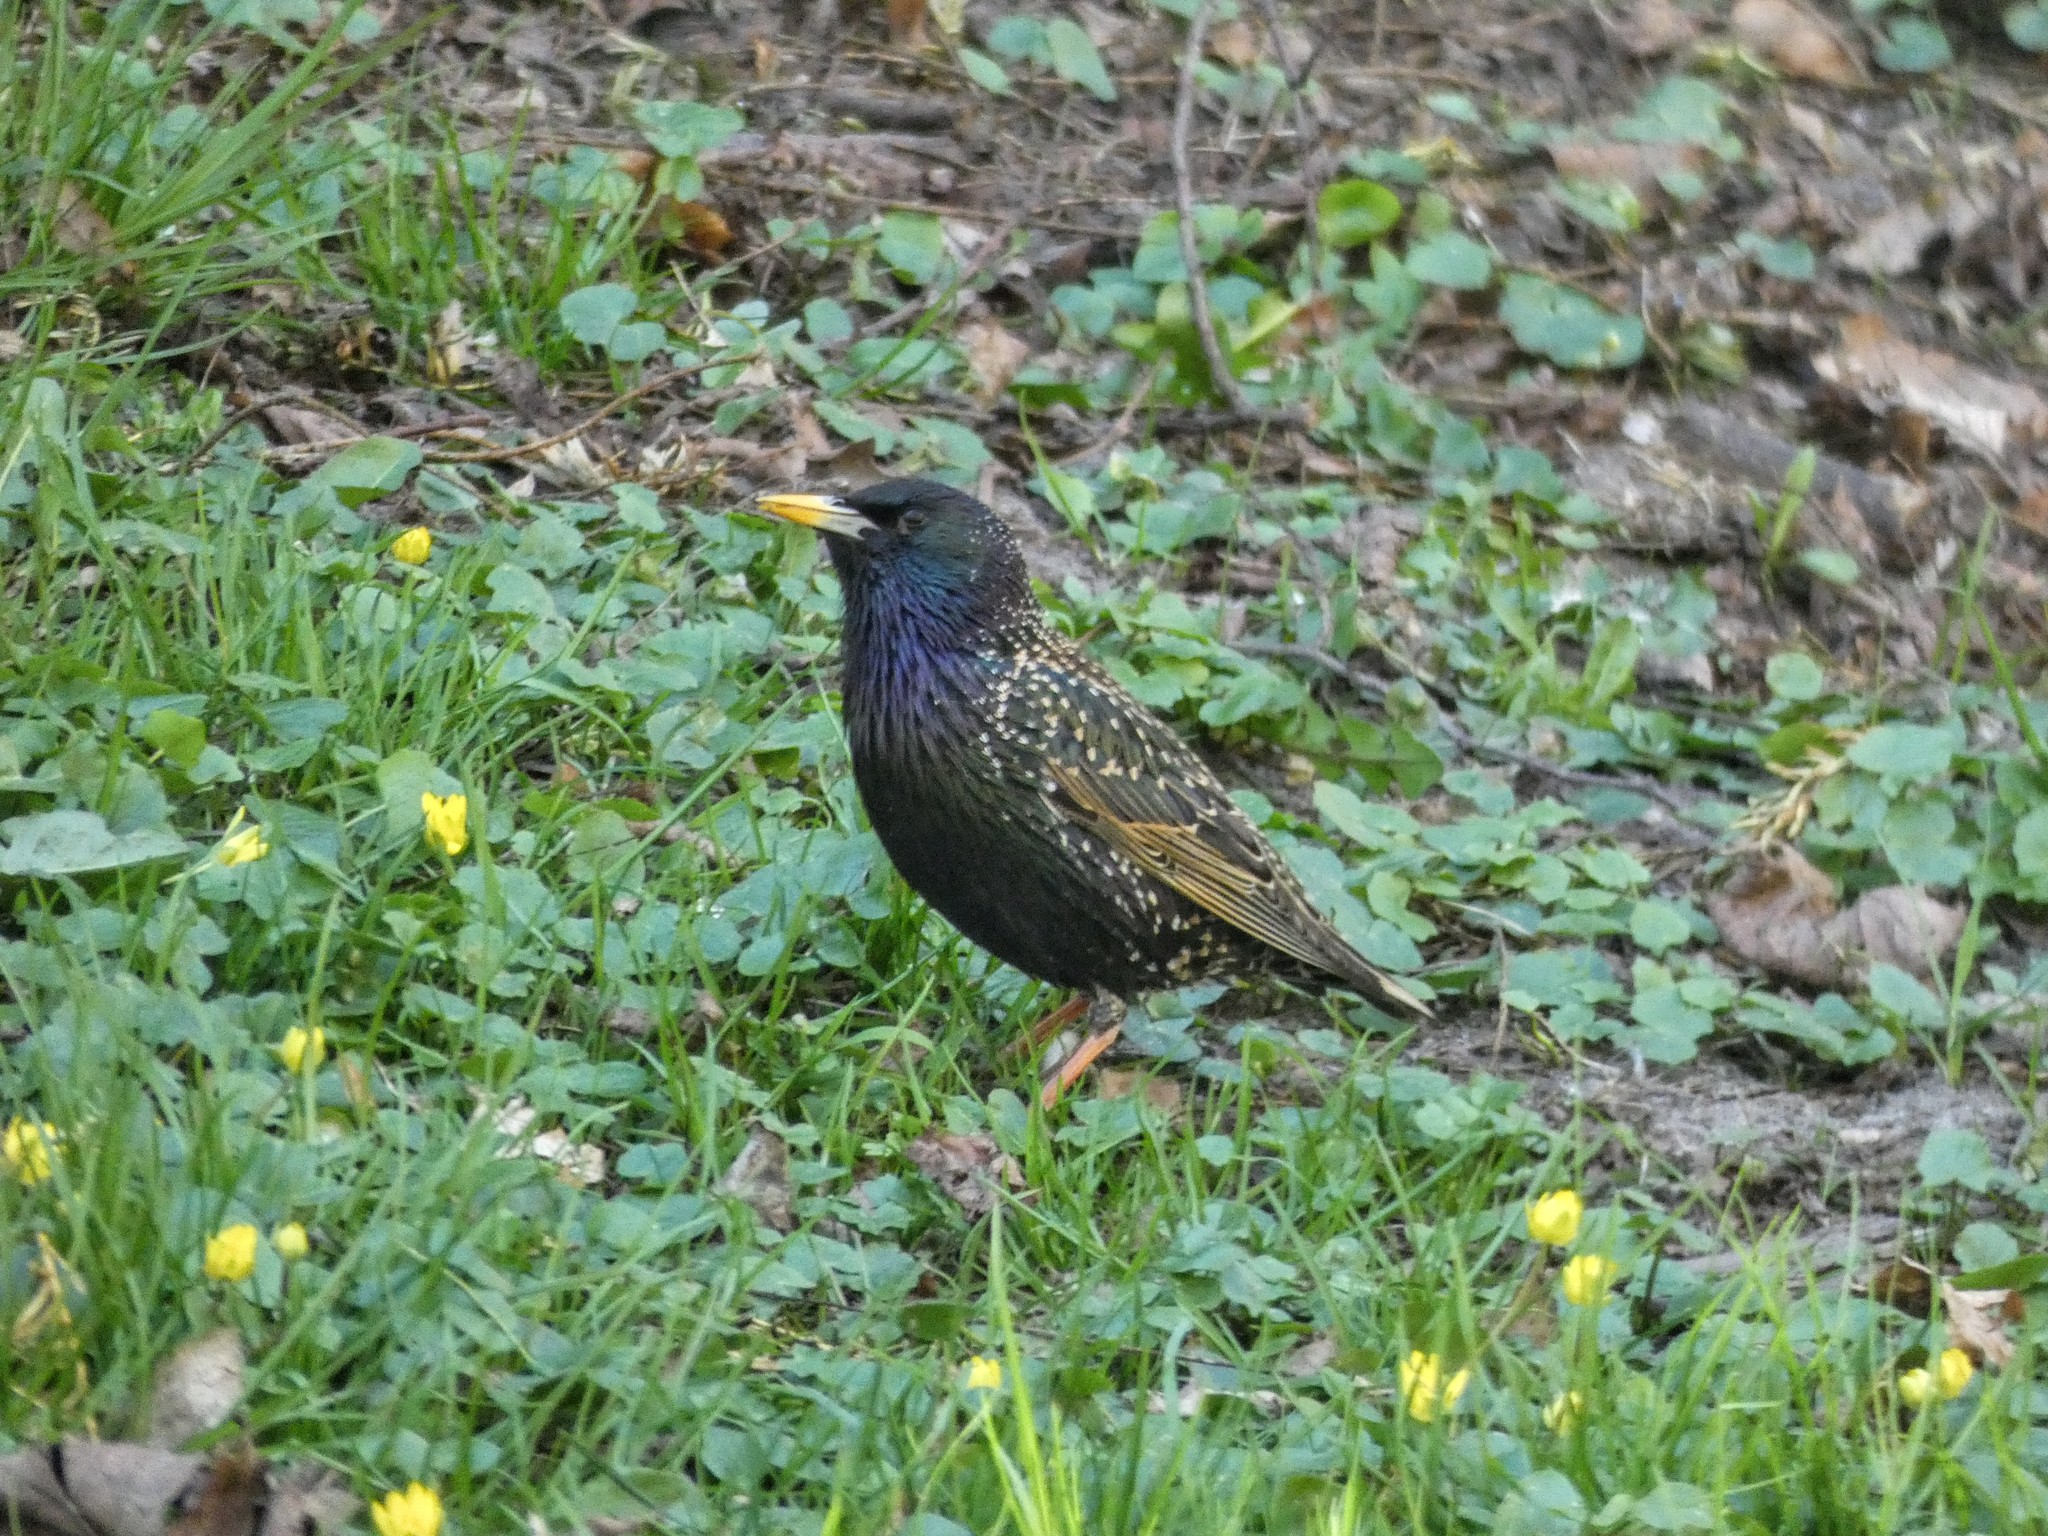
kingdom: Animalia
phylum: Chordata
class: Aves
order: Passeriformes
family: Sturnidae
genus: Sturnus
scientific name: Sturnus vulgaris
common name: Common starling
